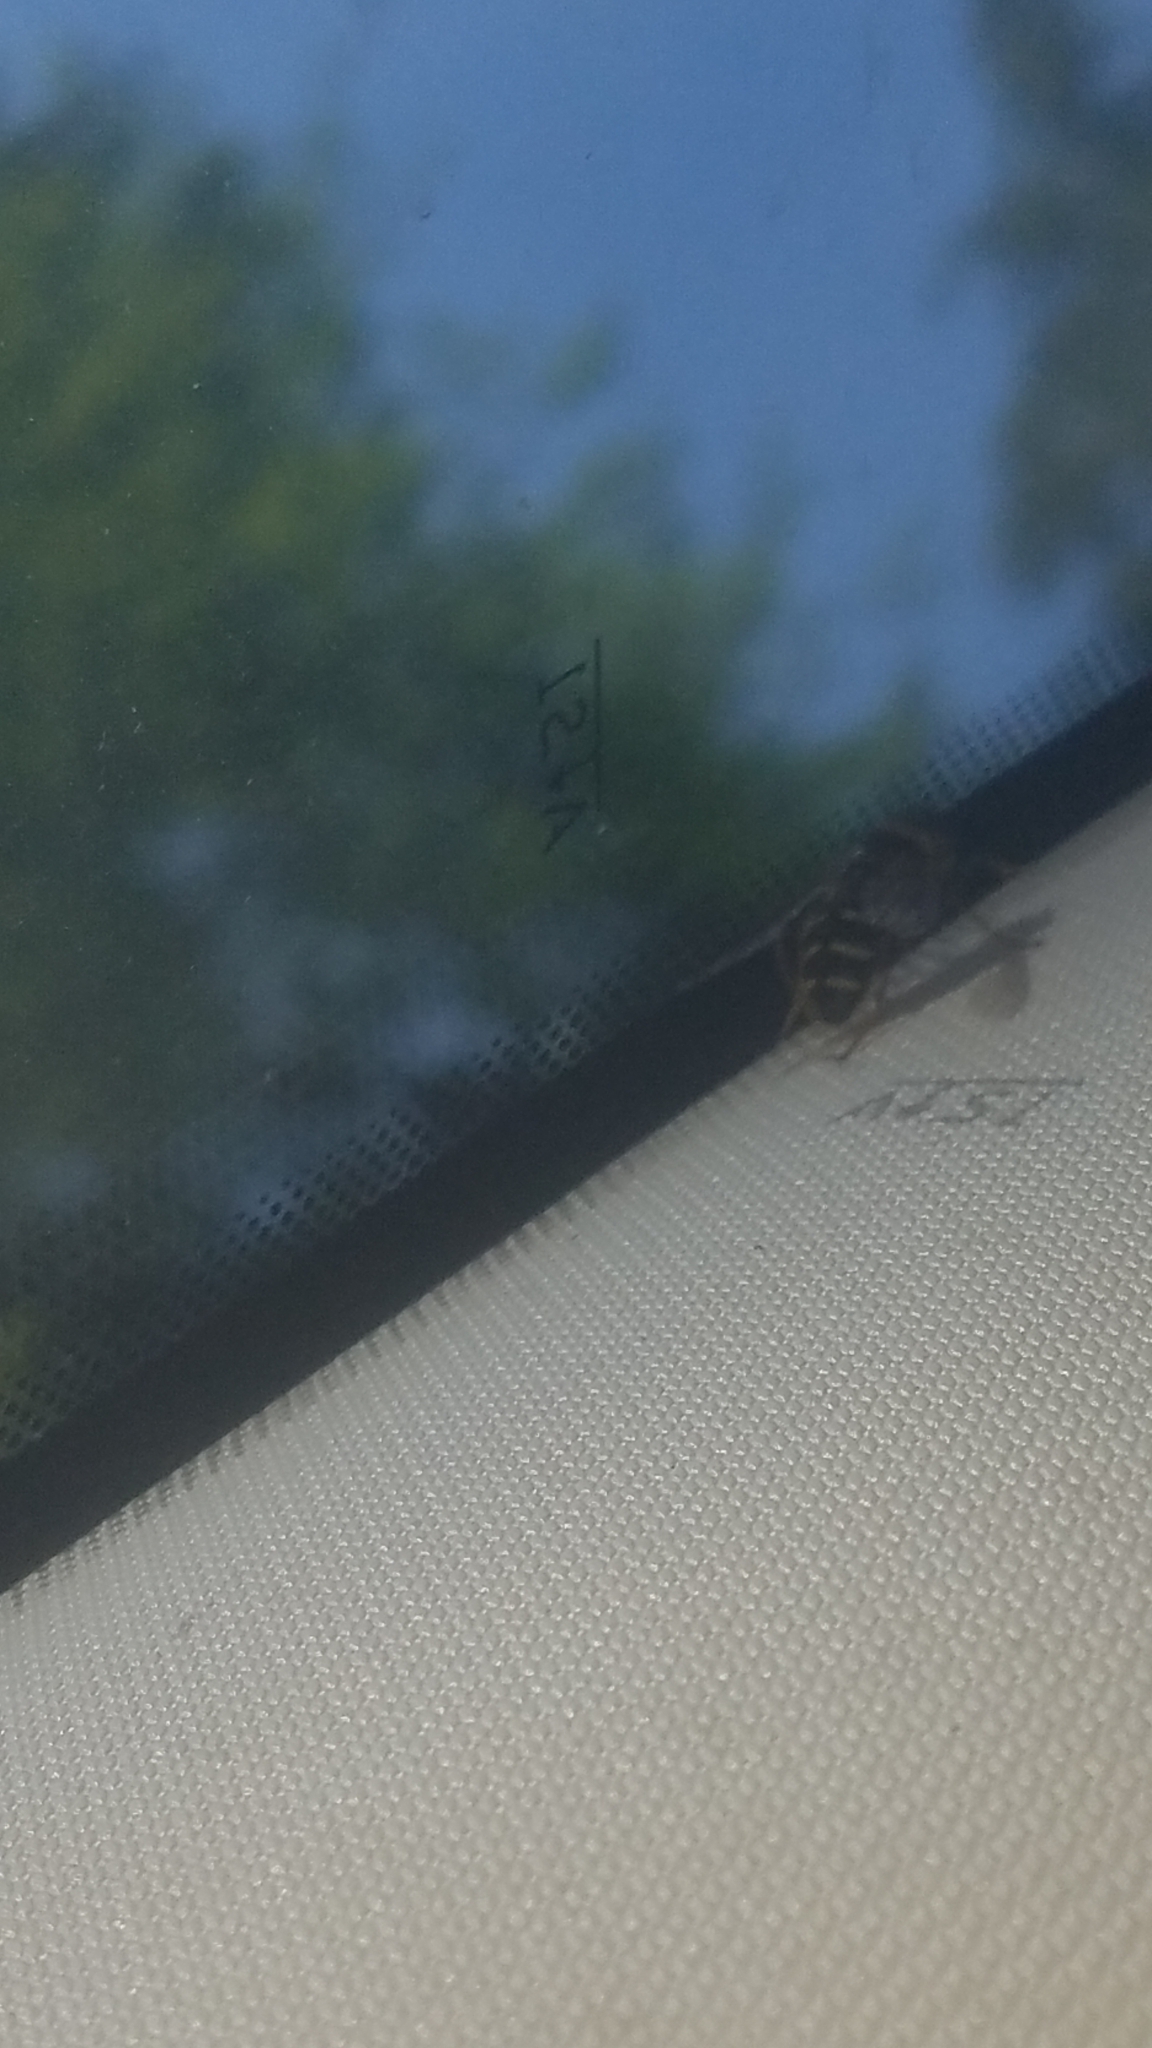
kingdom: Animalia
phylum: Arthropoda
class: Insecta
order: Diptera
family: Syrphidae
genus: Sericomyia
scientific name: Sericomyia chalcopyga
